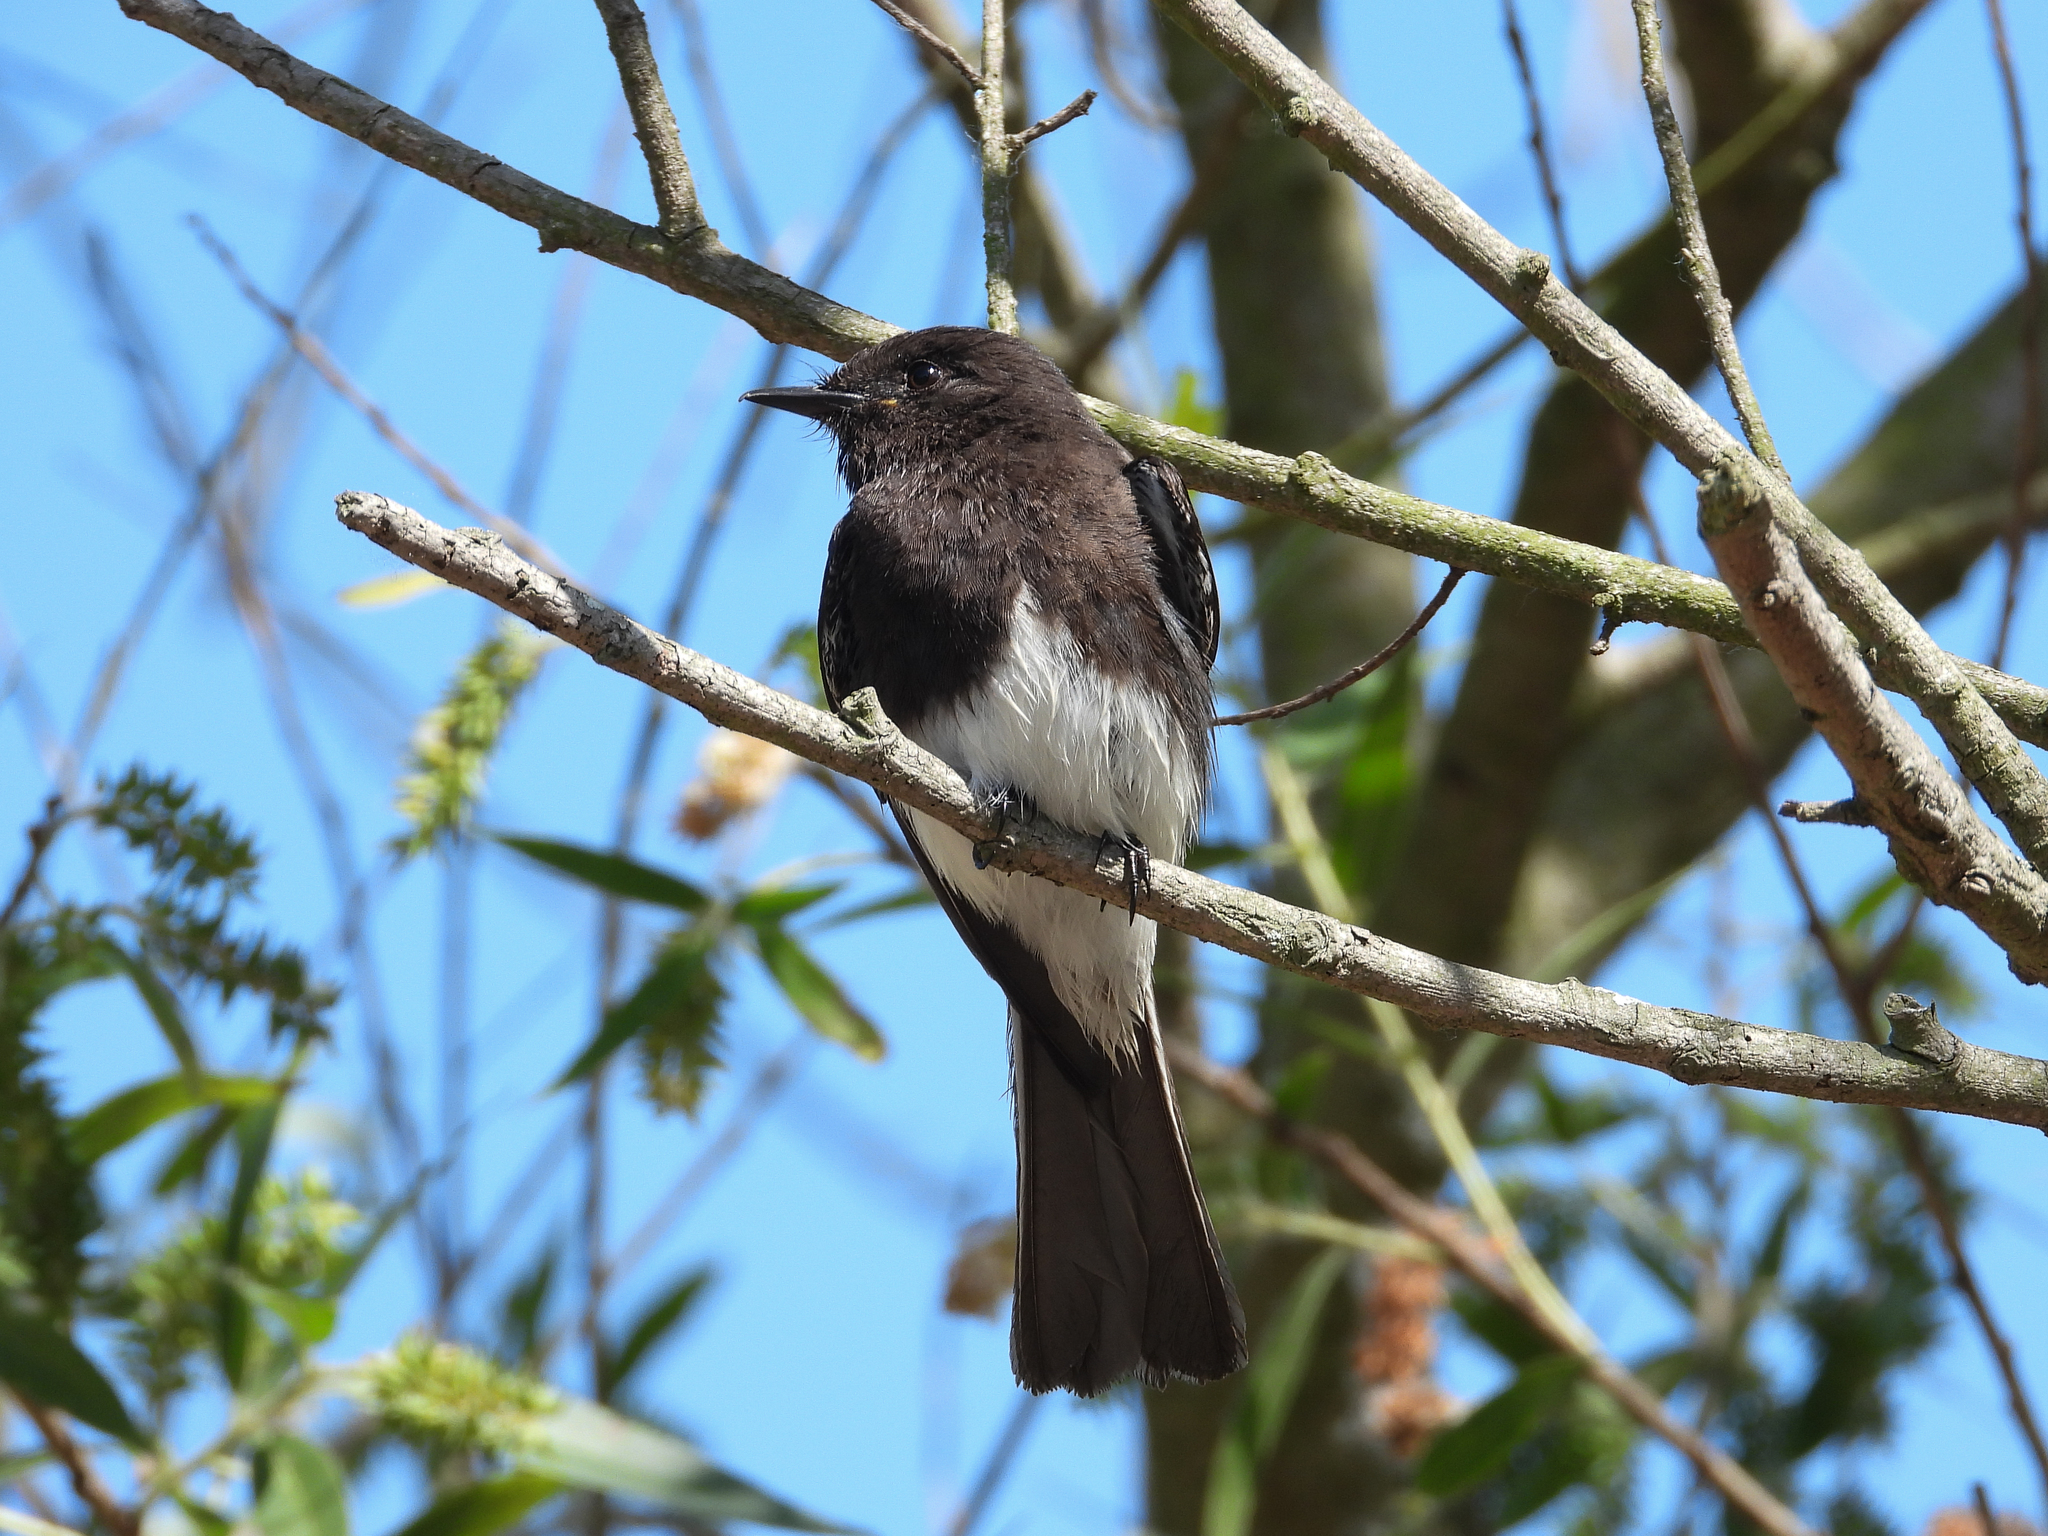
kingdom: Animalia
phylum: Chordata
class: Aves
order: Passeriformes
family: Tyrannidae
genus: Sayornis
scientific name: Sayornis nigricans
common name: Black phoebe
